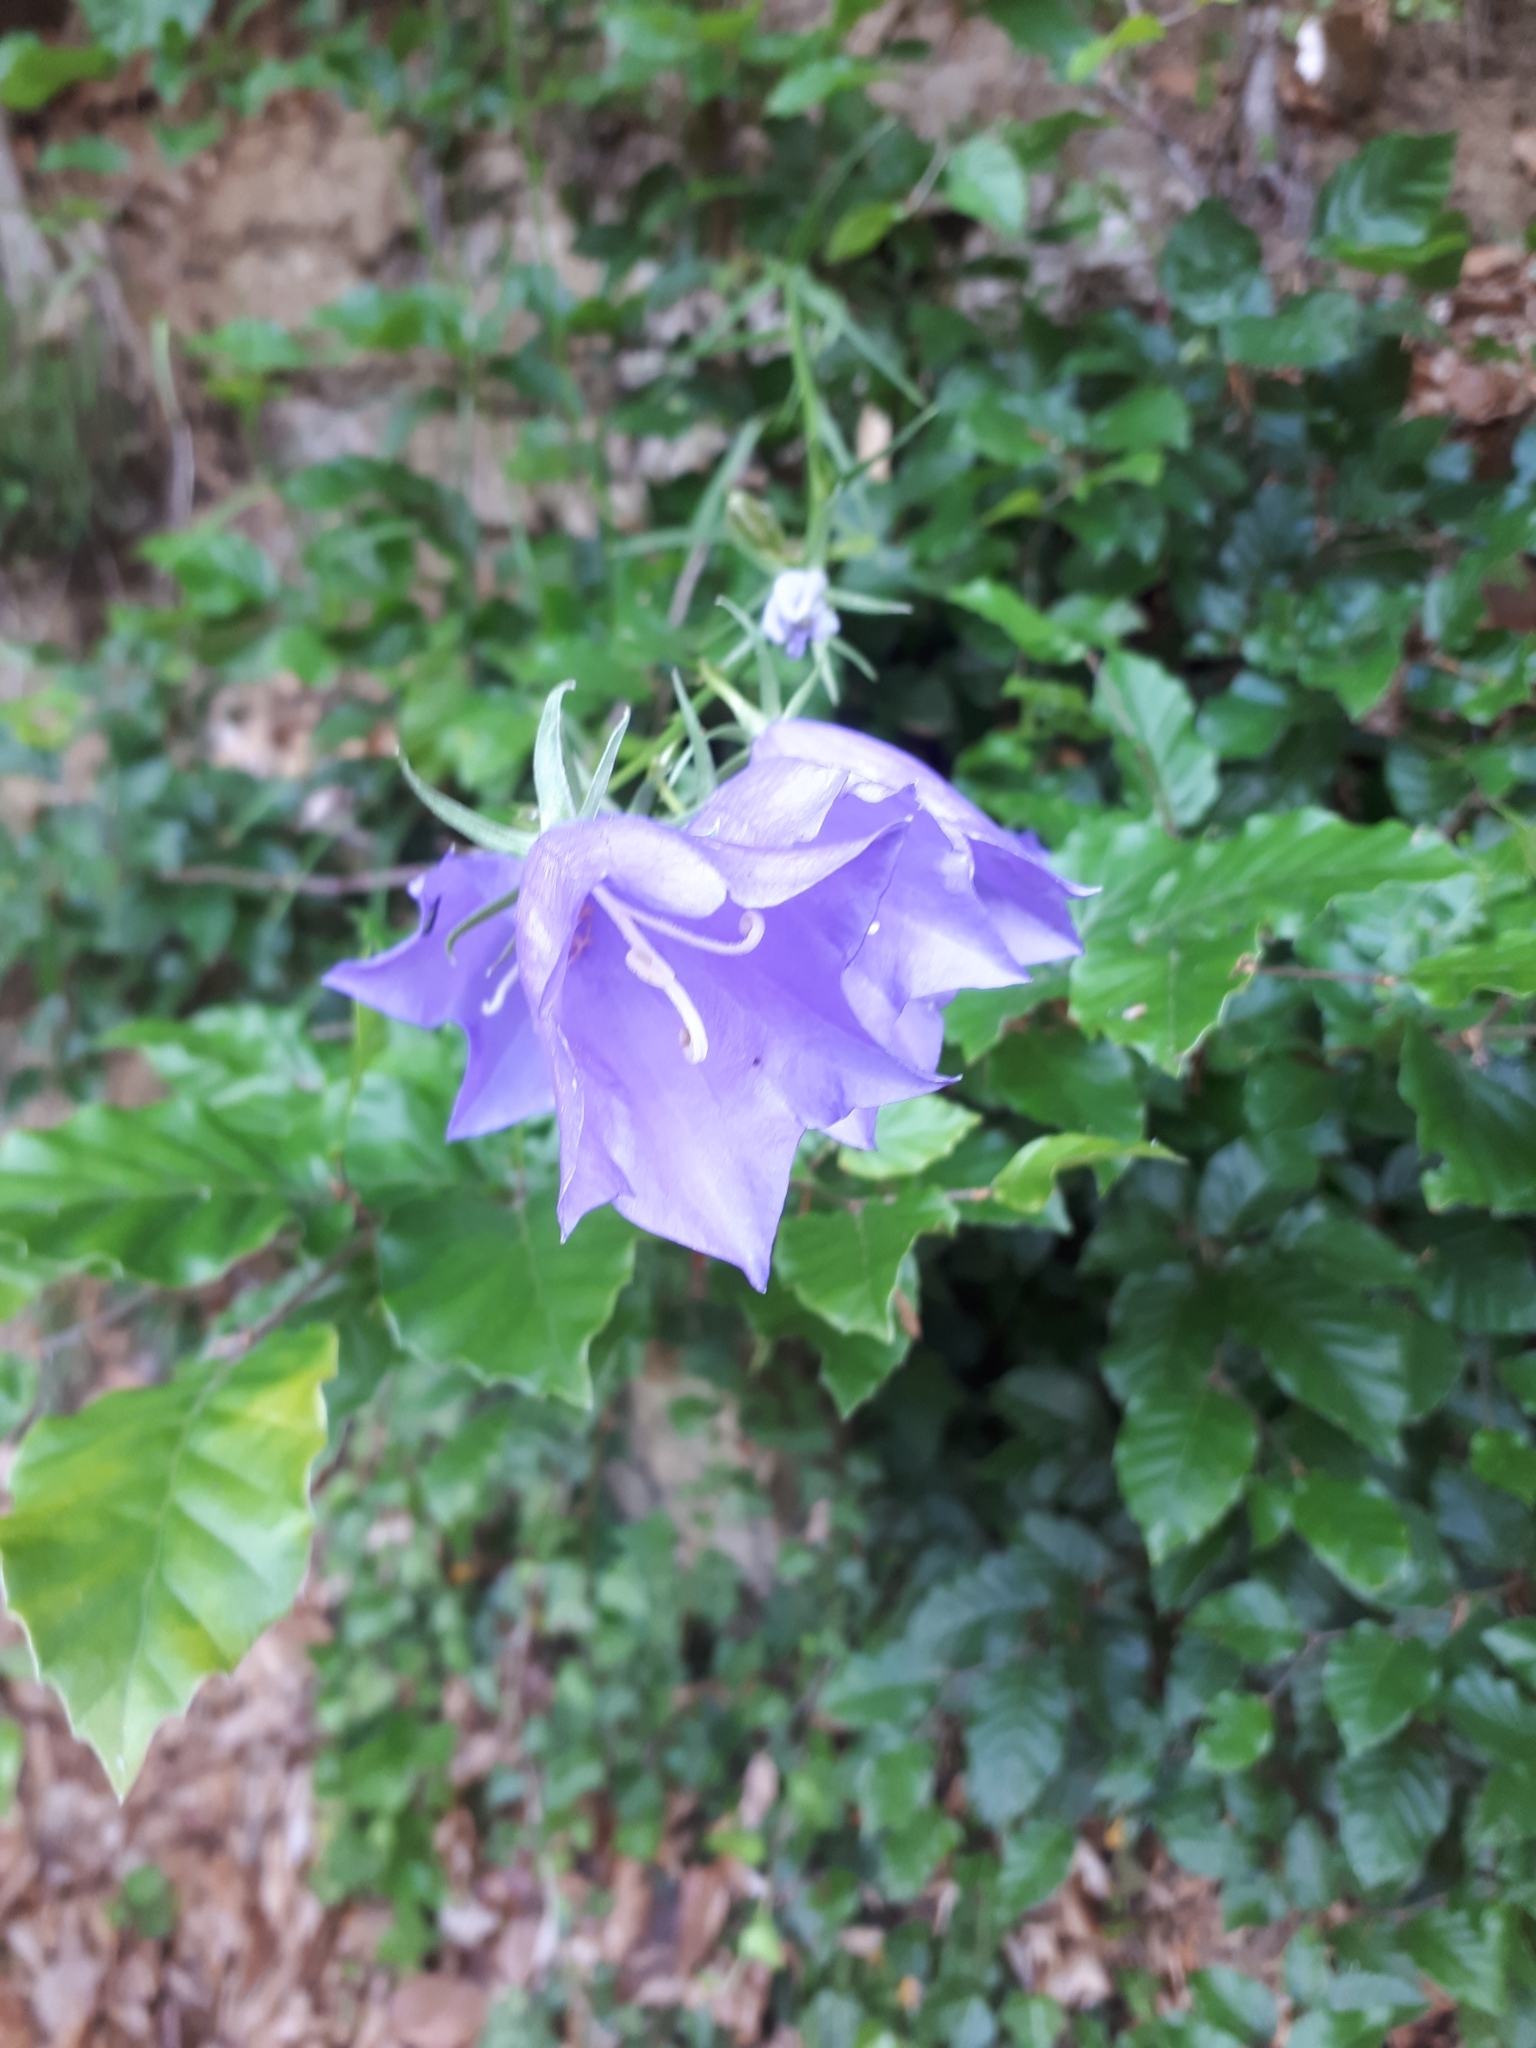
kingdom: Plantae
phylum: Tracheophyta
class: Magnoliopsida
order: Asterales
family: Campanulaceae
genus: Campanula
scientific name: Campanula persicifolia
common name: Peach-leaved bellflower
